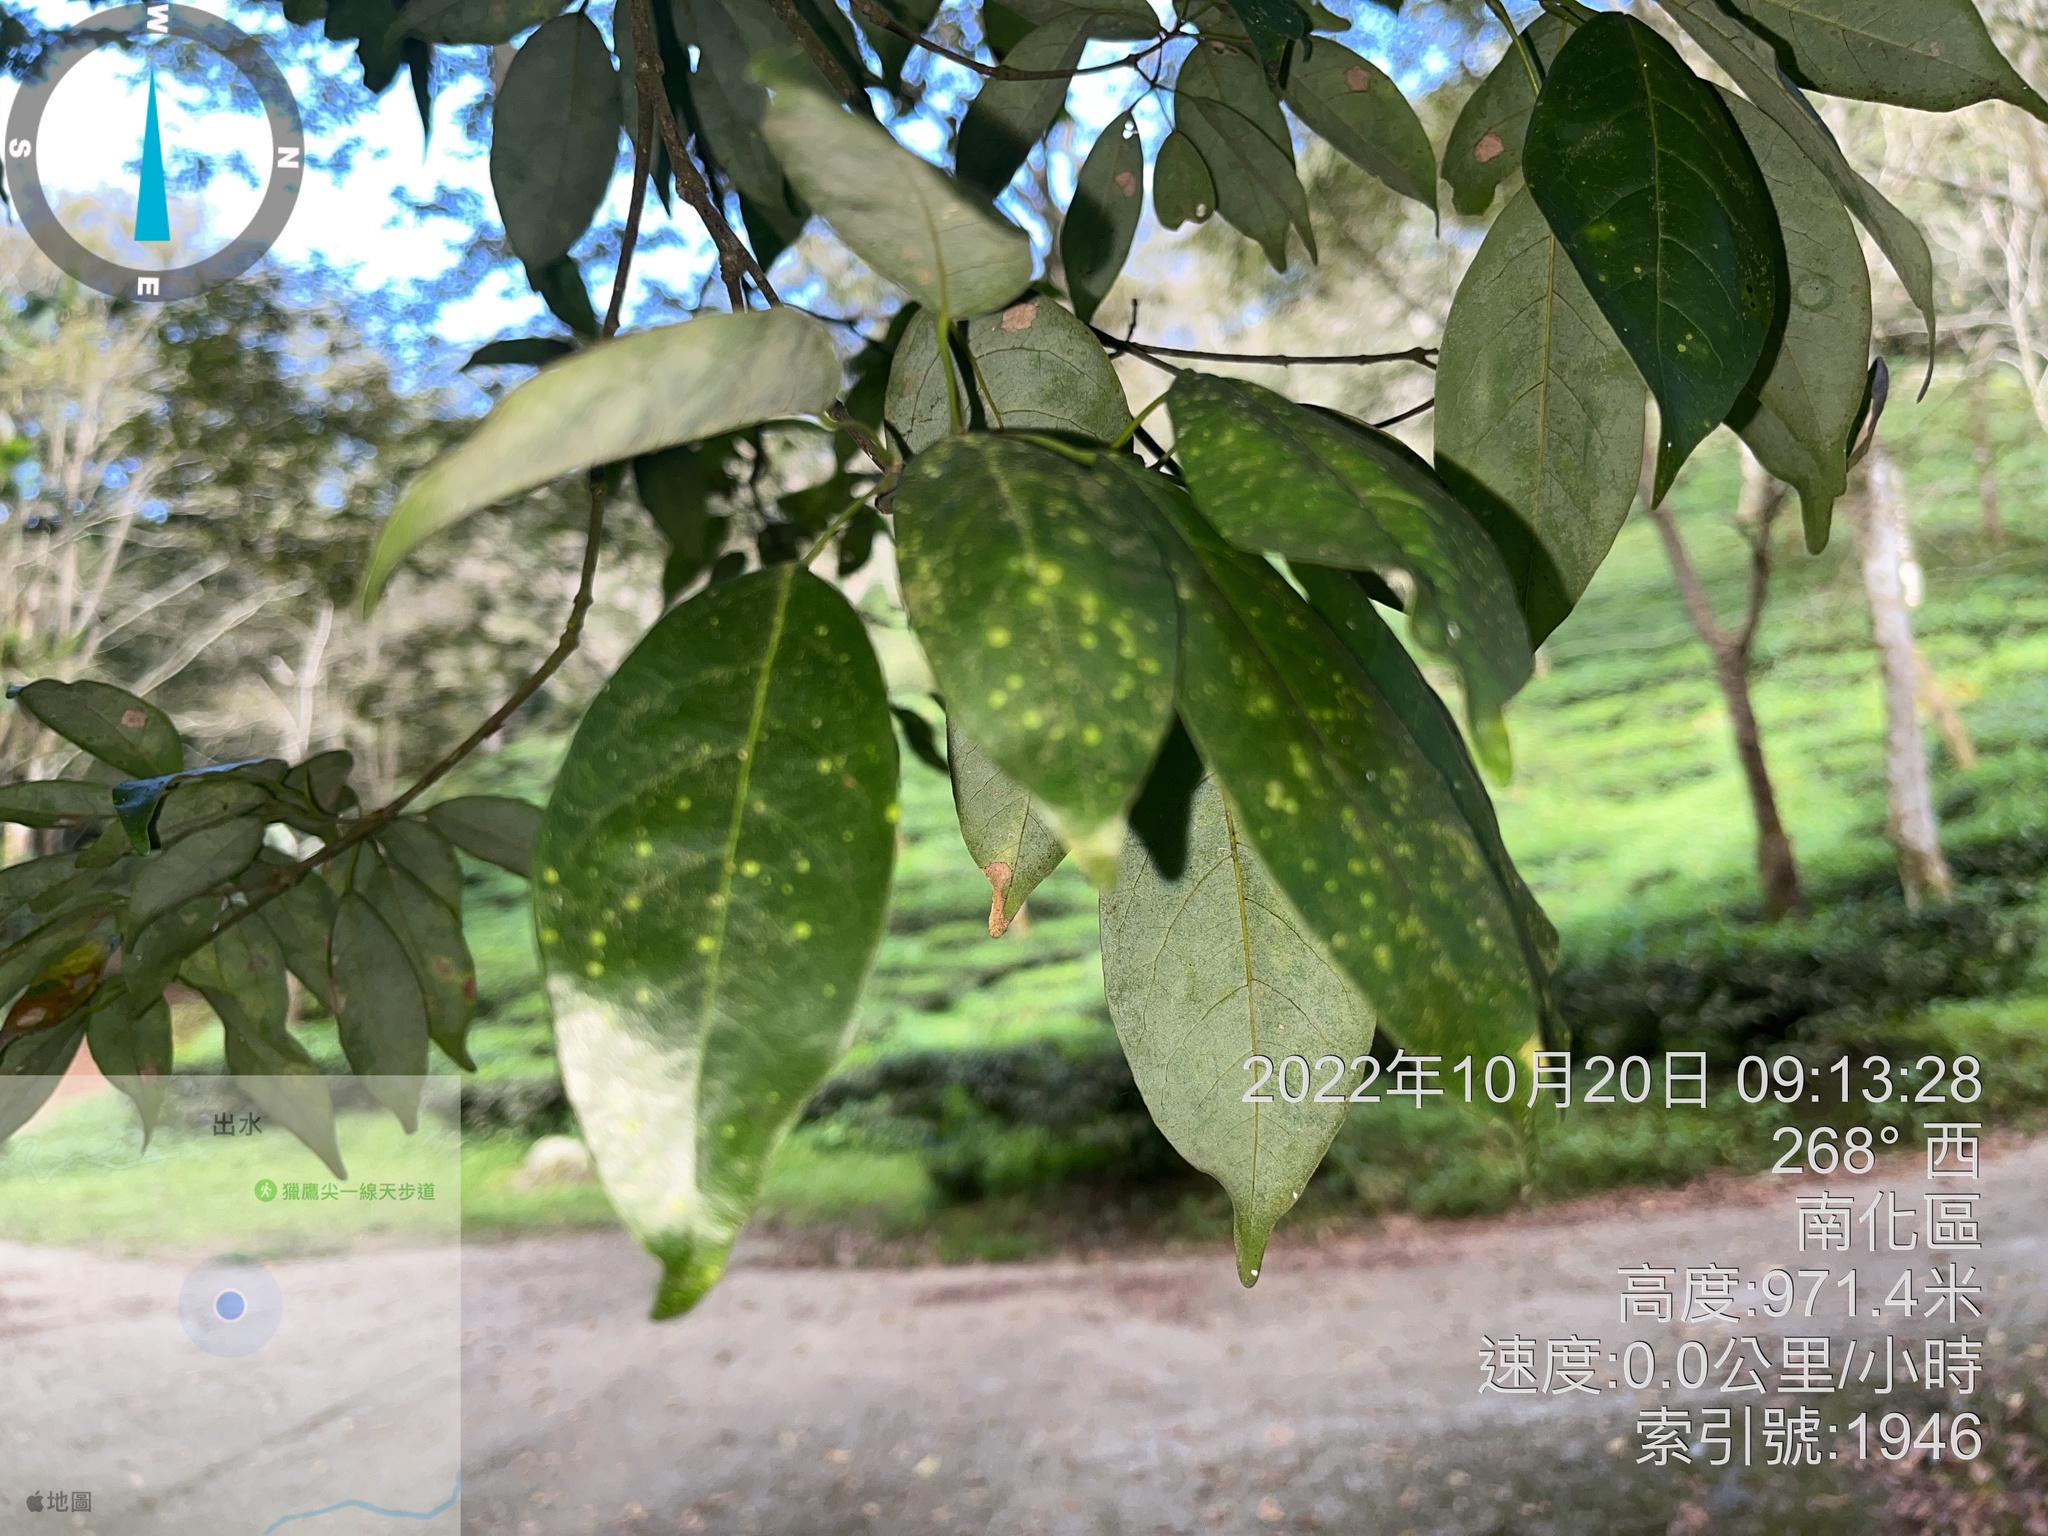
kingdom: Plantae
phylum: Tracheophyta
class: Magnoliopsida
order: Fagales
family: Fagaceae
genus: Quercus
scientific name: Quercus glauca
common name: Ring-cup oak
